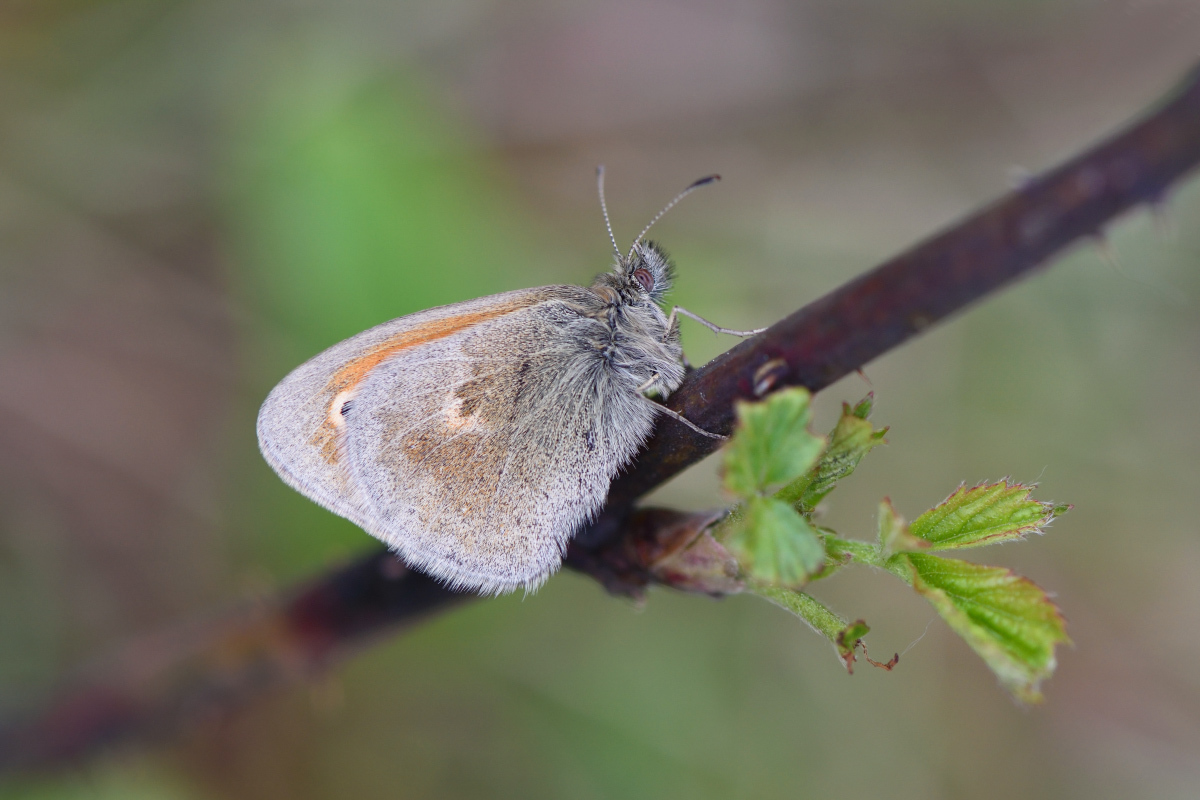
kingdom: Animalia
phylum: Arthropoda
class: Insecta
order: Lepidoptera
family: Nymphalidae
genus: Coenonympha
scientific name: Coenonympha pamphilus
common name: Small heath
